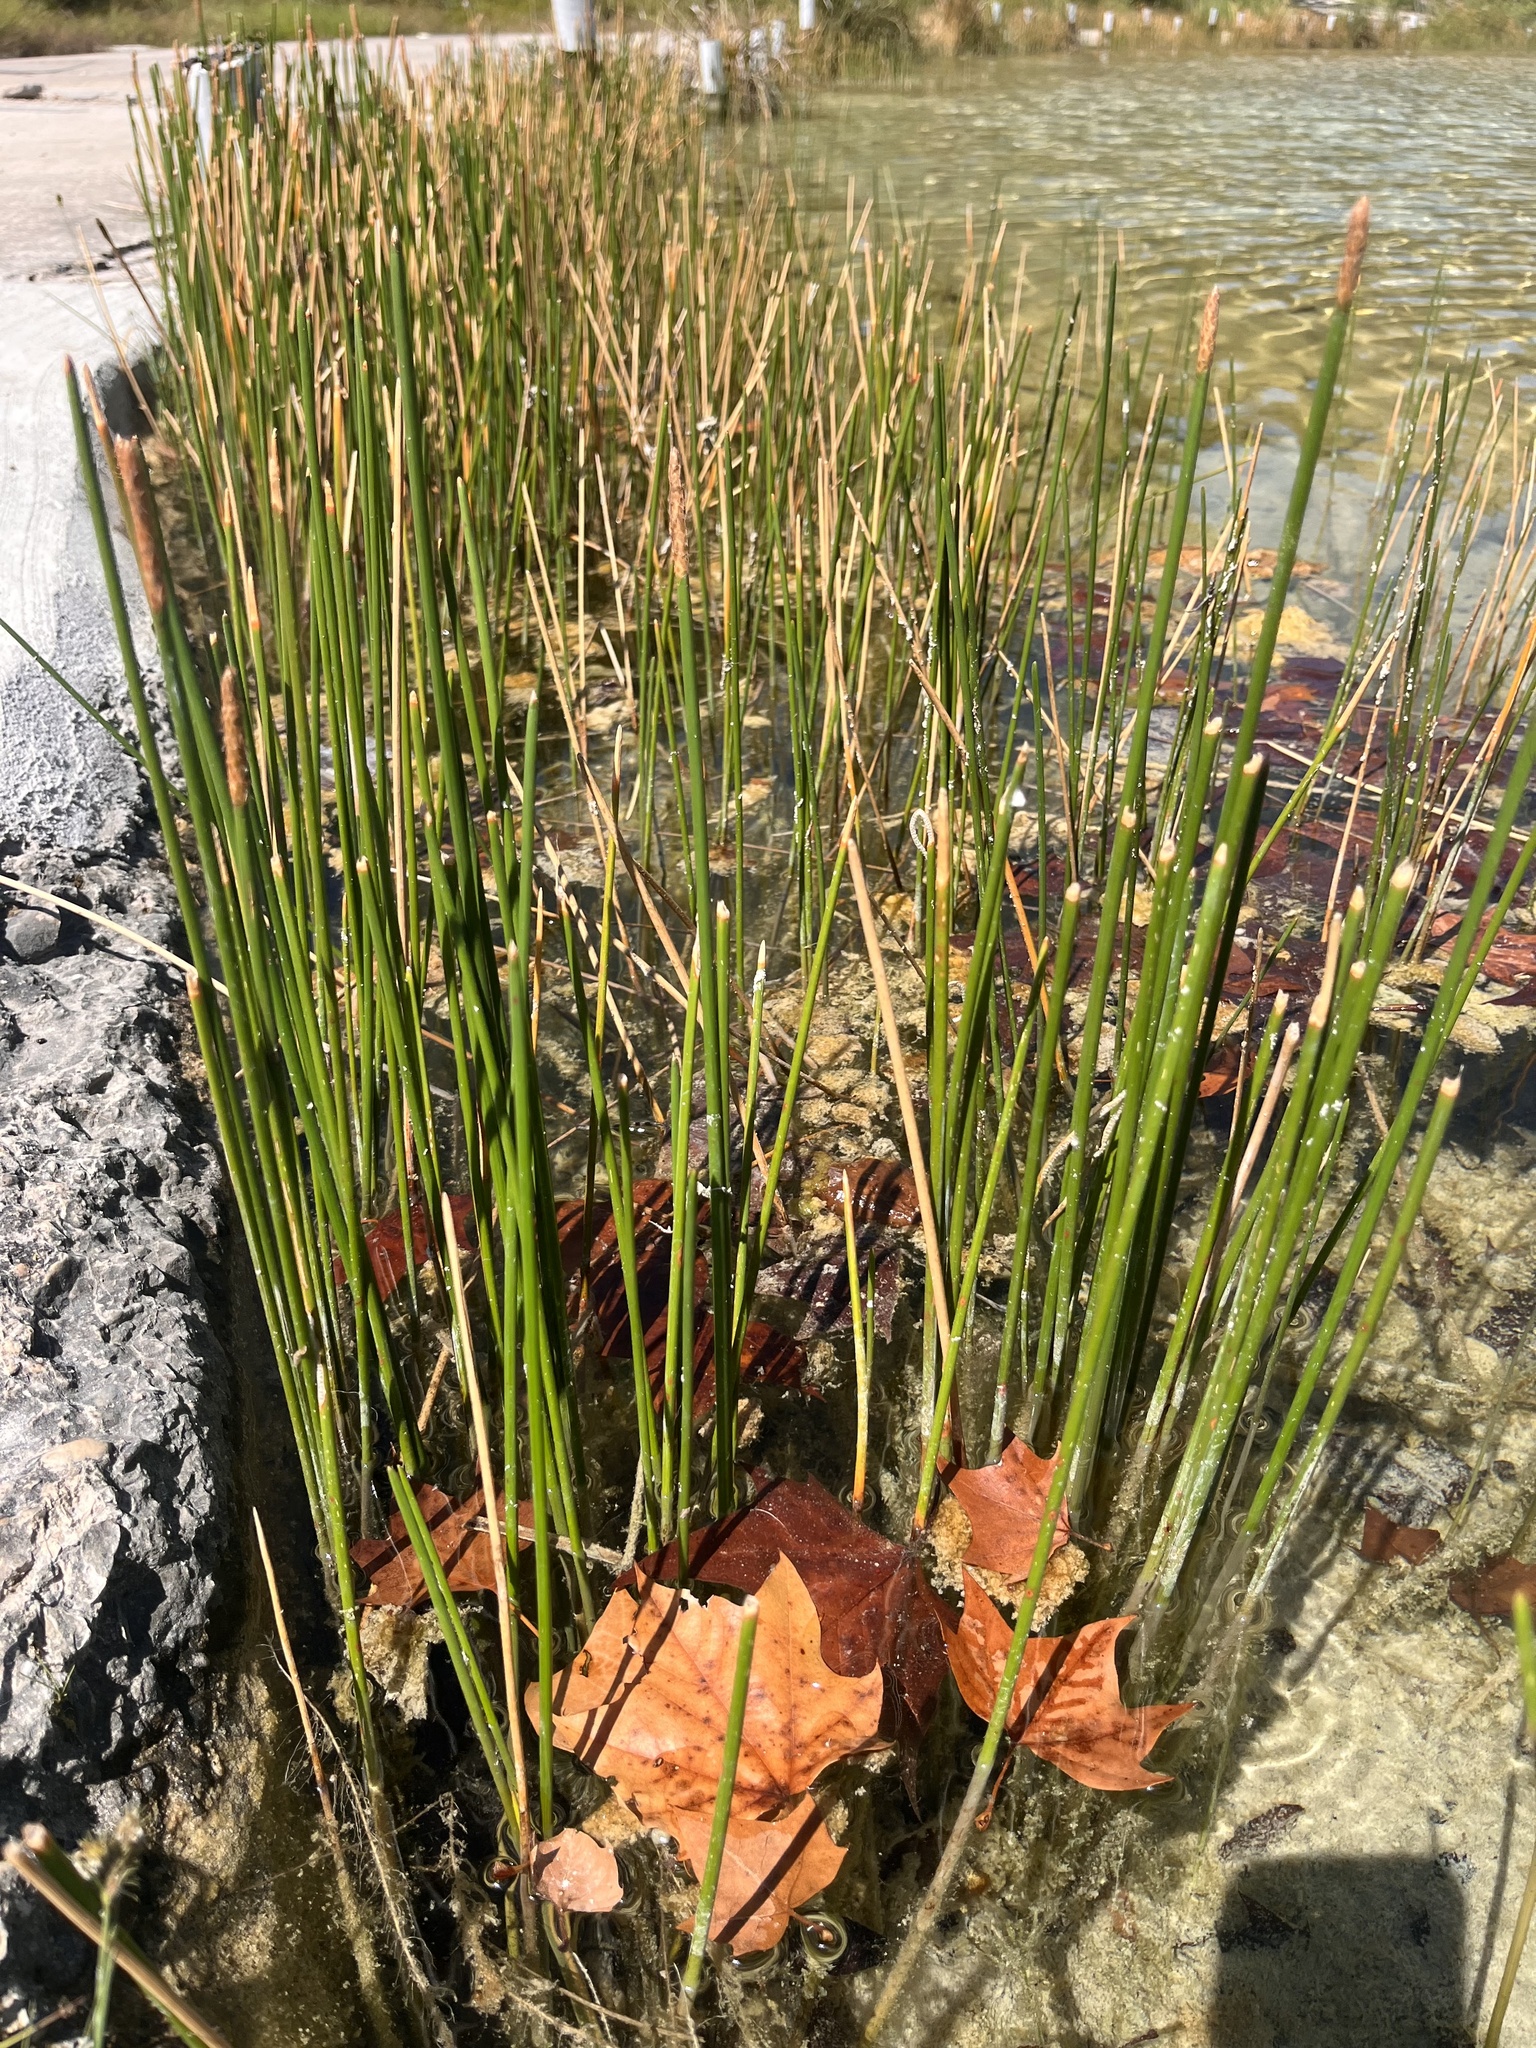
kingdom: Plantae
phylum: Tracheophyta
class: Liliopsida
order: Poales
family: Cyperaceae
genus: Eleocharis
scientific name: Eleocharis palustris
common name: Common spike-rush
